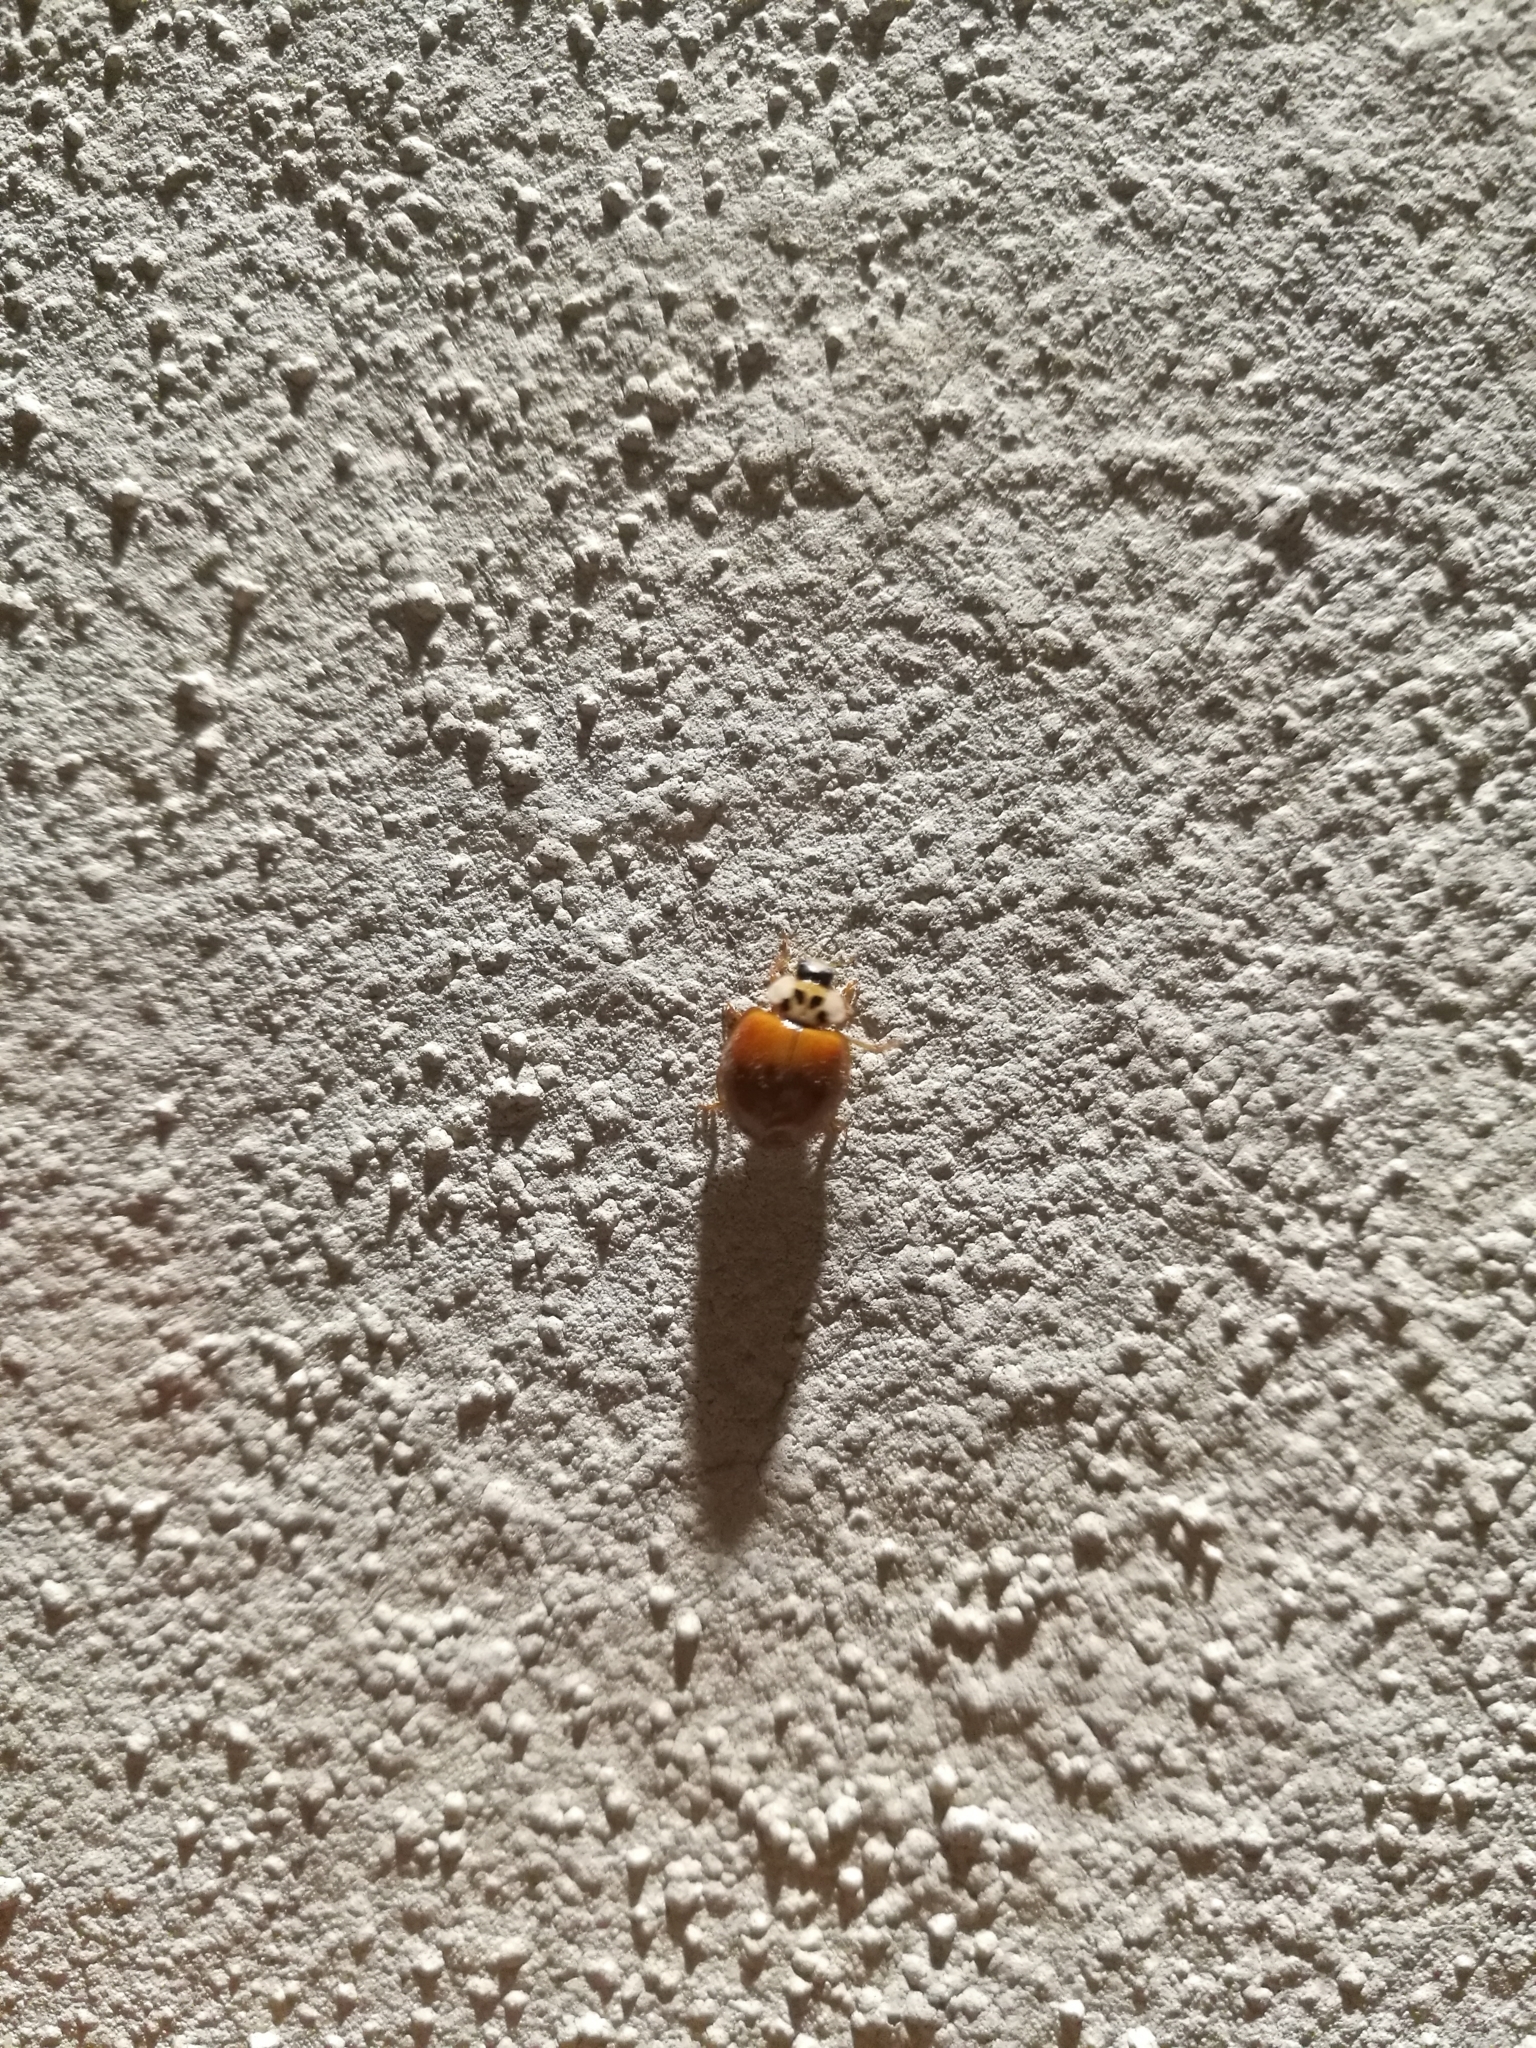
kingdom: Animalia
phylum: Arthropoda
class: Insecta
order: Coleoptera
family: Coccinellidae
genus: Harmonia
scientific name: Harmonia axyridis
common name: Harlequin ladybird
